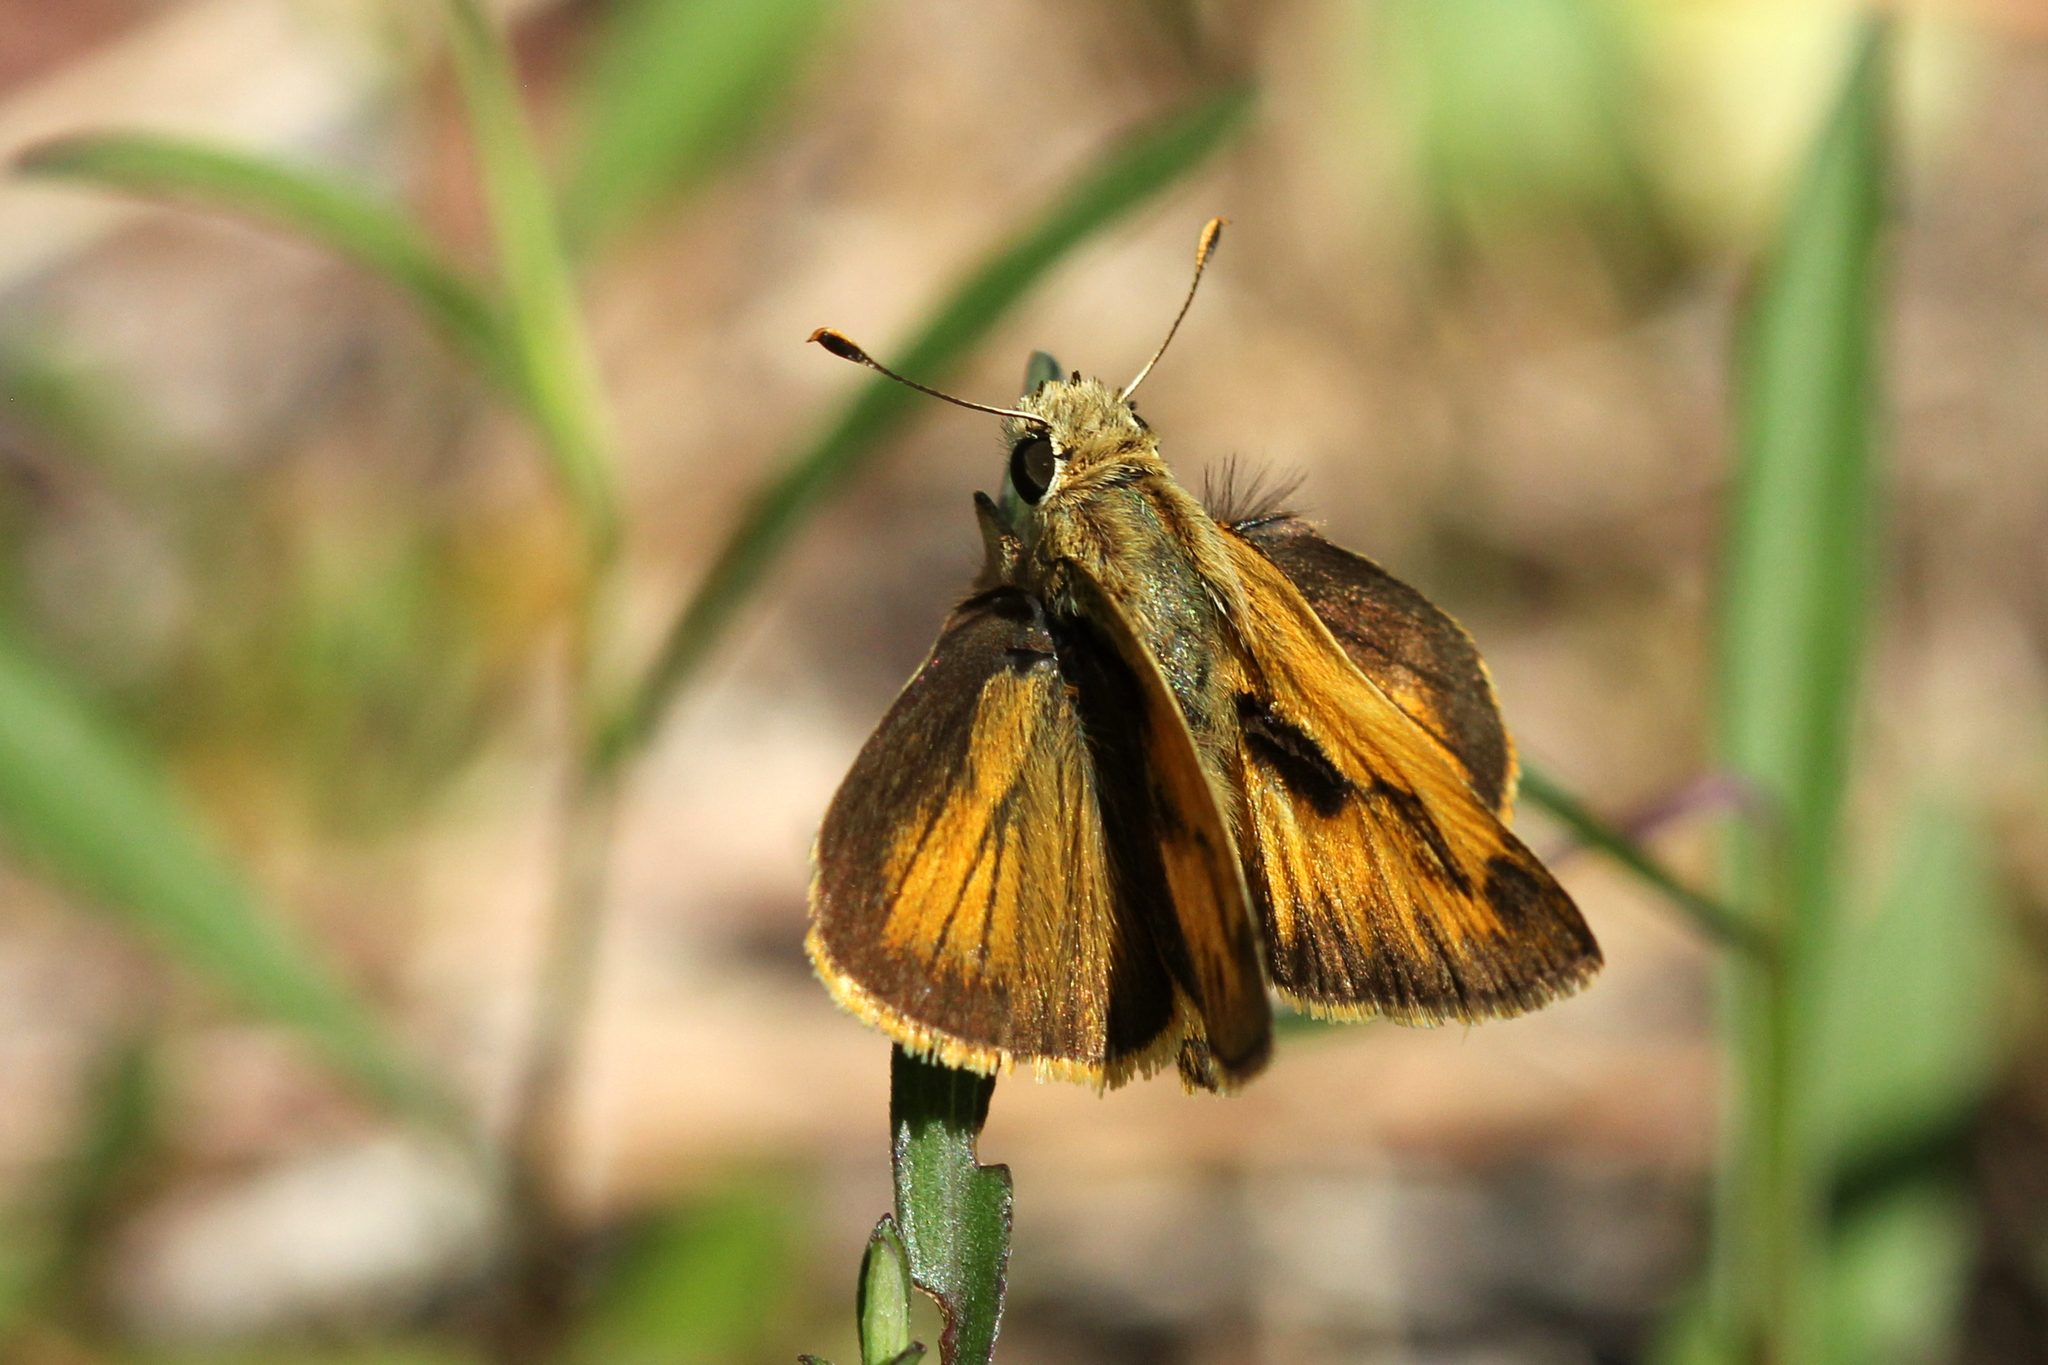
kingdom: Animalia
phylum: Arthropoda
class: Insecta
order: Lepidoptera
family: Hesperiidae
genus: Polites
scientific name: Polites vibex
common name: Whirlabout
